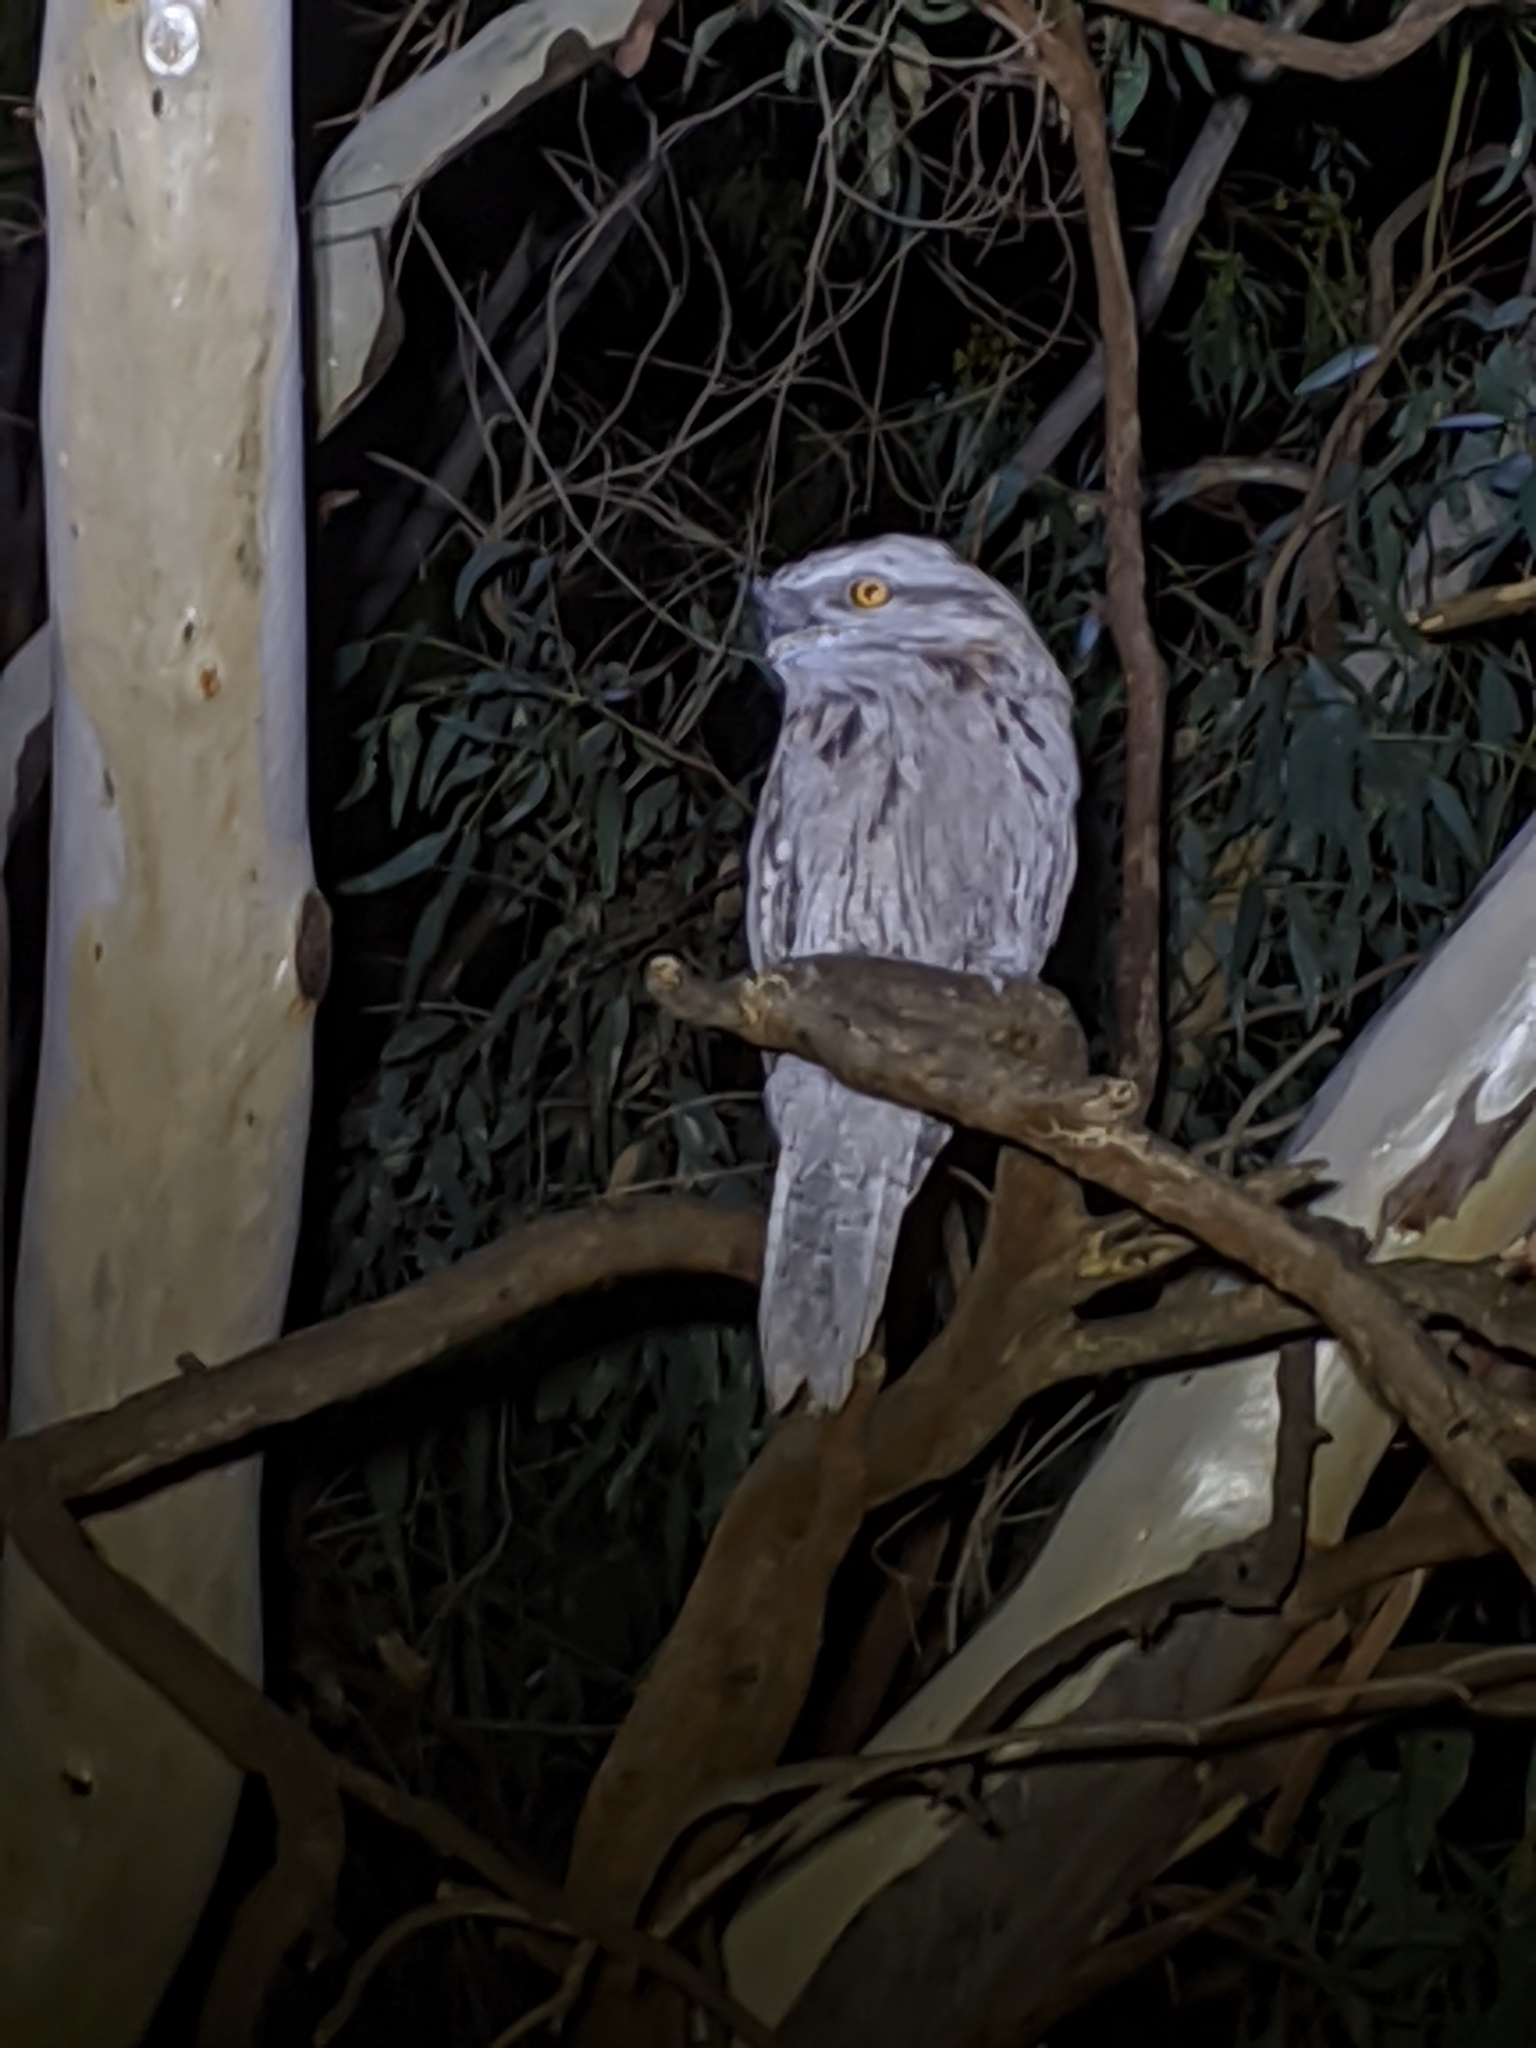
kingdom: Animalia
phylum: Chordata
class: Aves
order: Caprimulgiformes
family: Podargidae
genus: Podargus
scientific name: Podargus strigoides
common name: Tawny frogmouth
